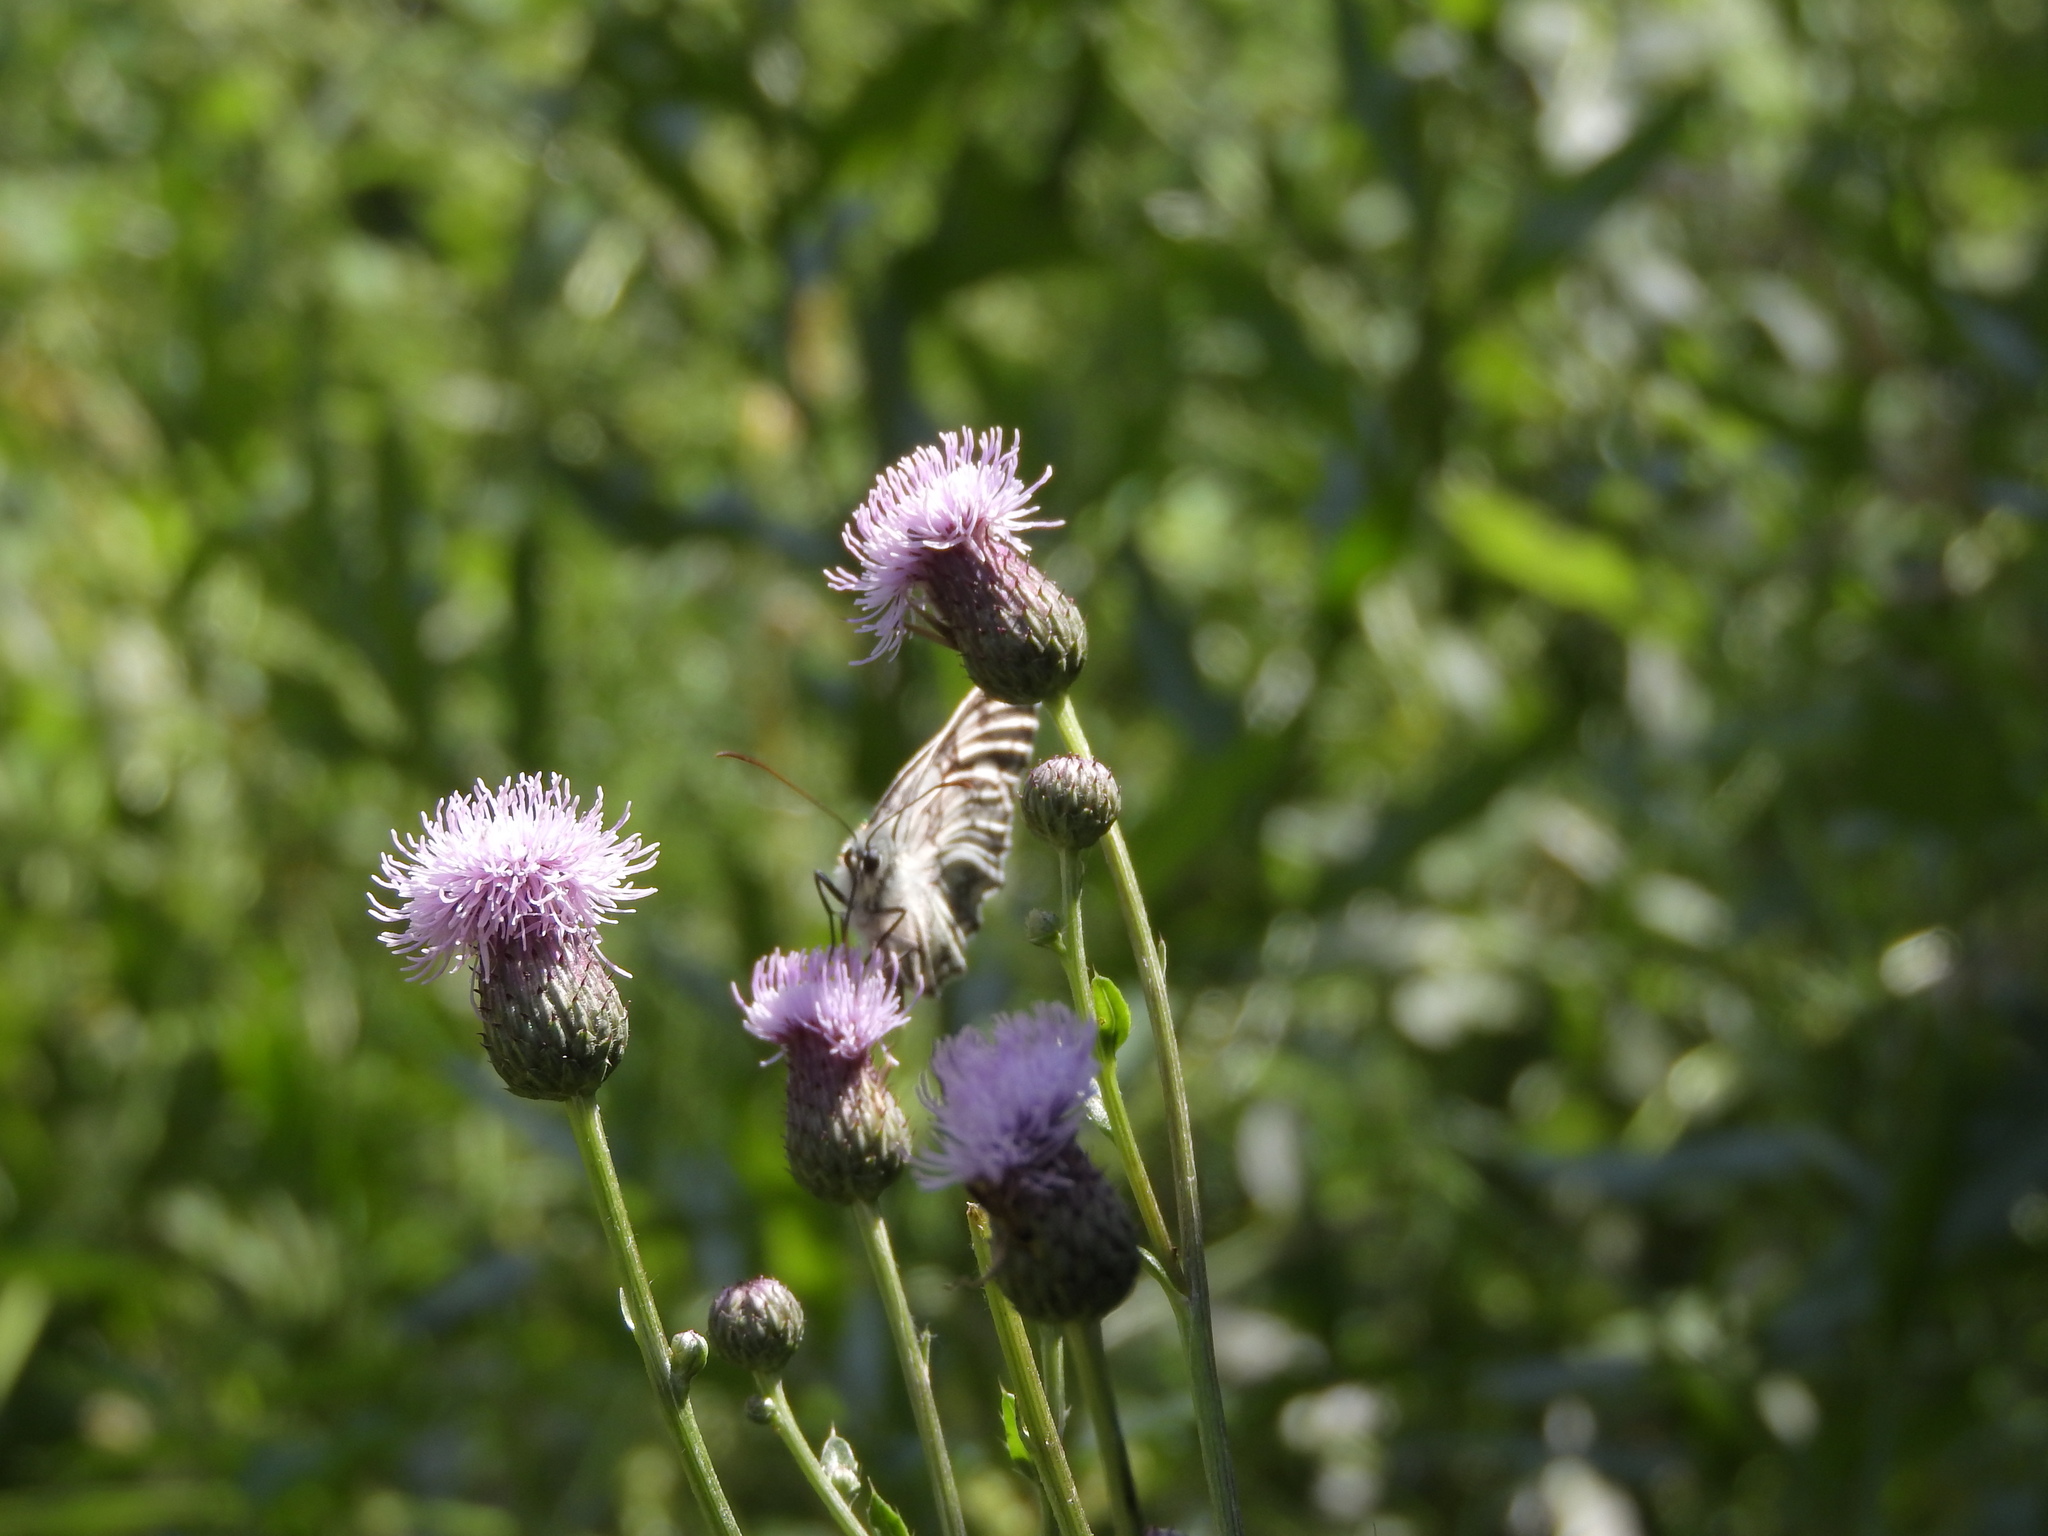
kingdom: Animalia
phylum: Arthropoda
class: Insecta
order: Lepidoptera
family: Nymphalidae
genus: Melanargia
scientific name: Melanargia galathea
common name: Marbled white
